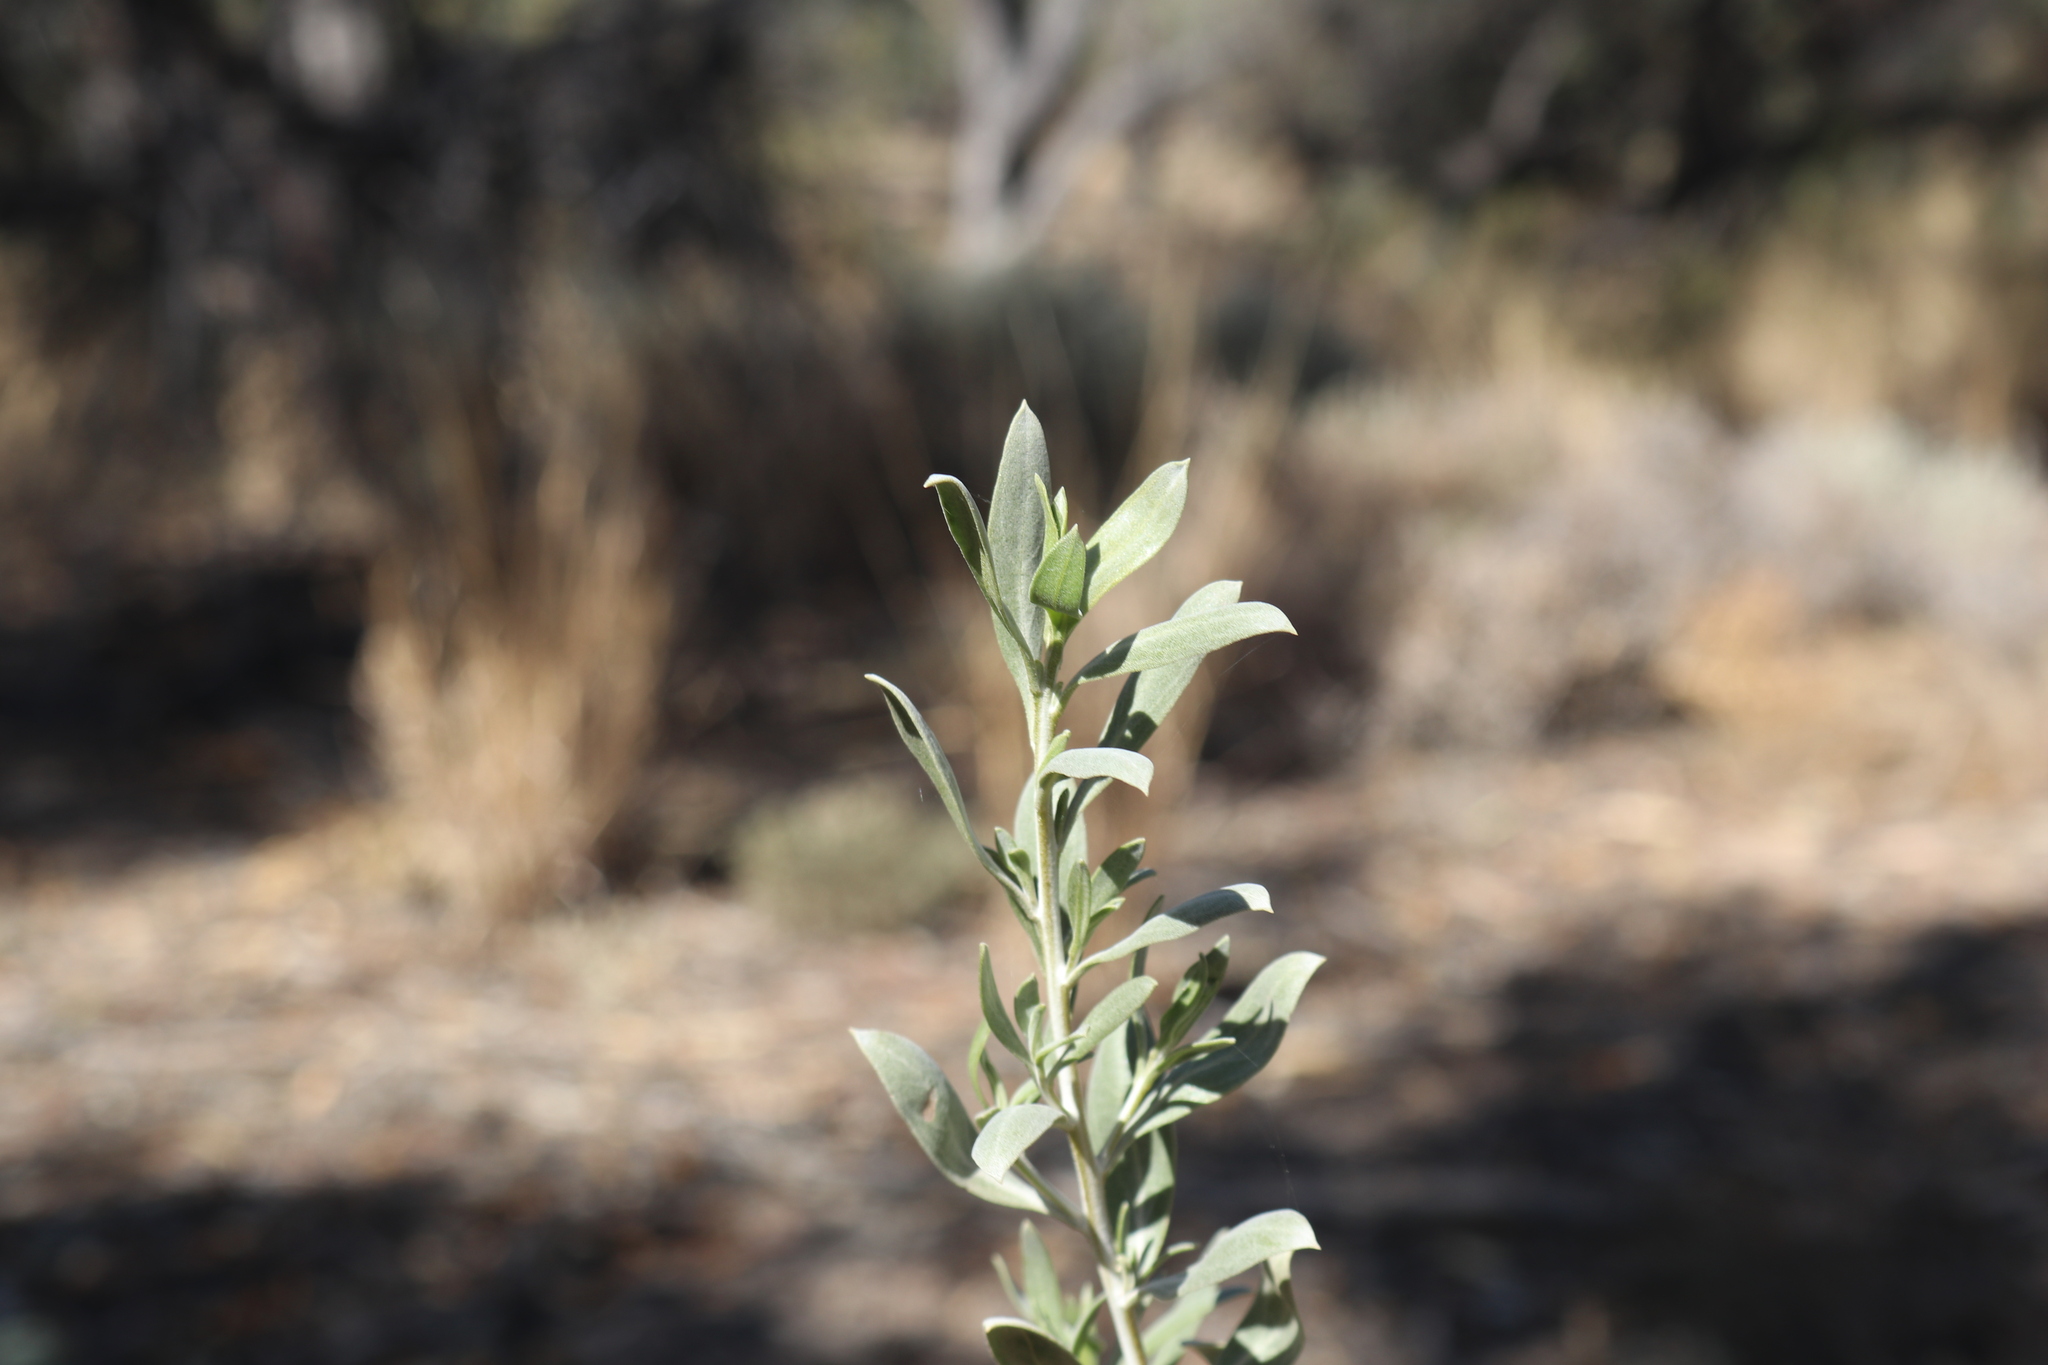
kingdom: Plantae
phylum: Tracheophyta
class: Magnoliopsida
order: Lamiales
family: Scrophulariaceae
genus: Eremophila
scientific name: Eremophila glabra
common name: Black-fuchsia
